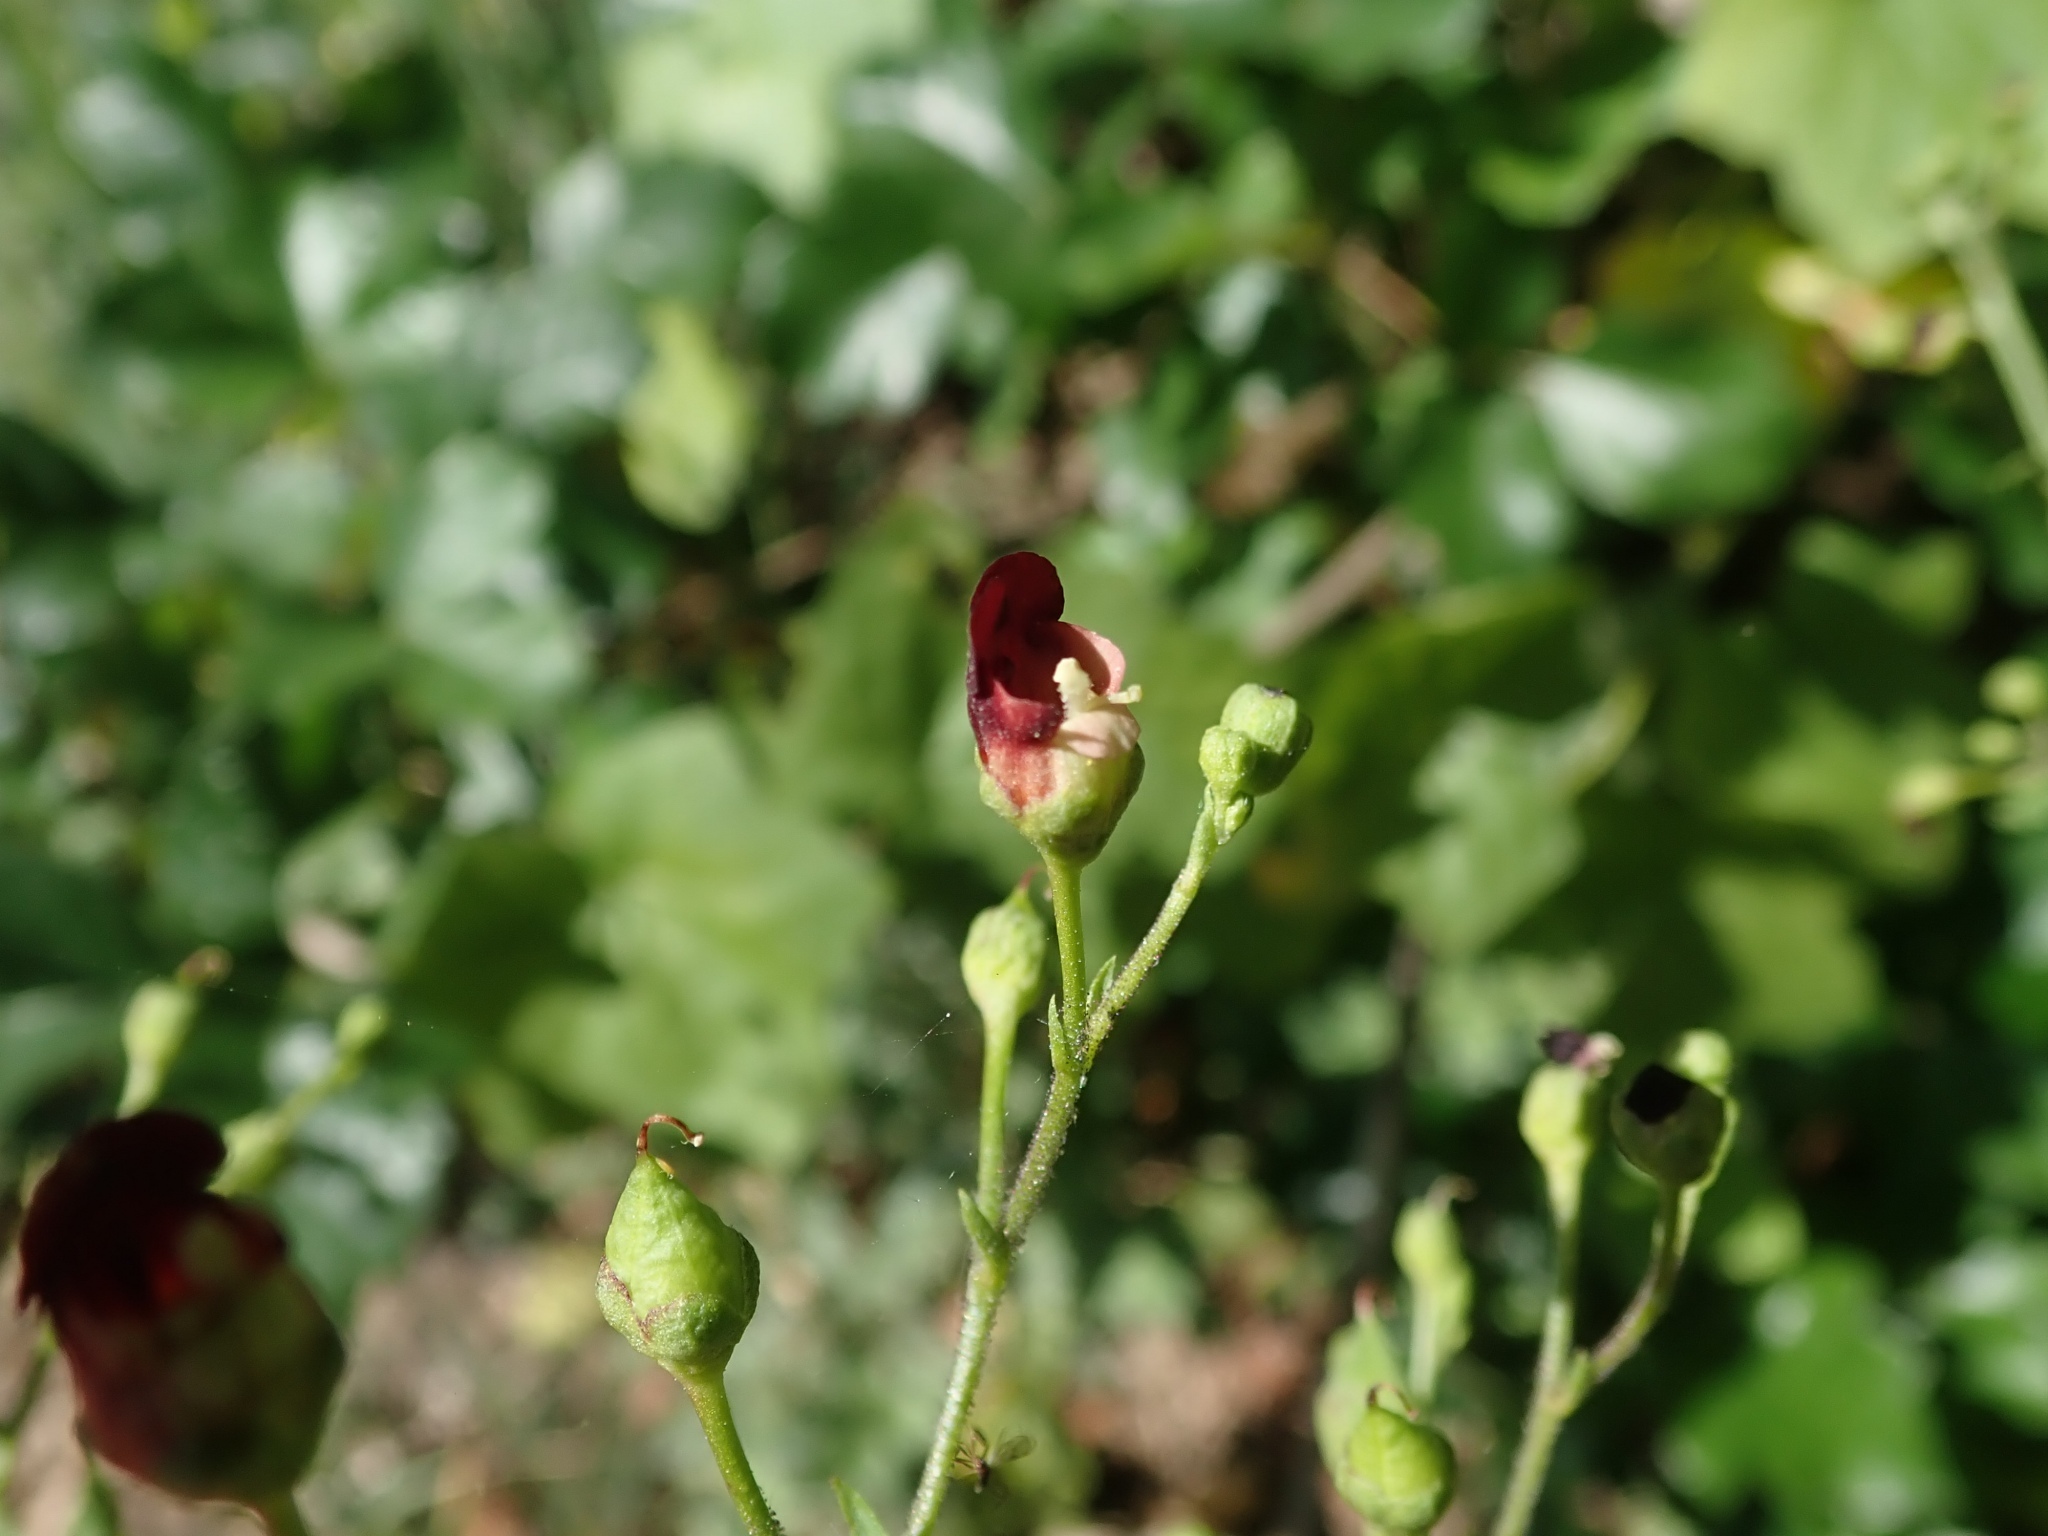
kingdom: Plantae
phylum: Tracheophyta
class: Magnoliopsida
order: Lamiales
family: Scrophulariaceae
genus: Scrophularia
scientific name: Scrophularia californica
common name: California figwort
